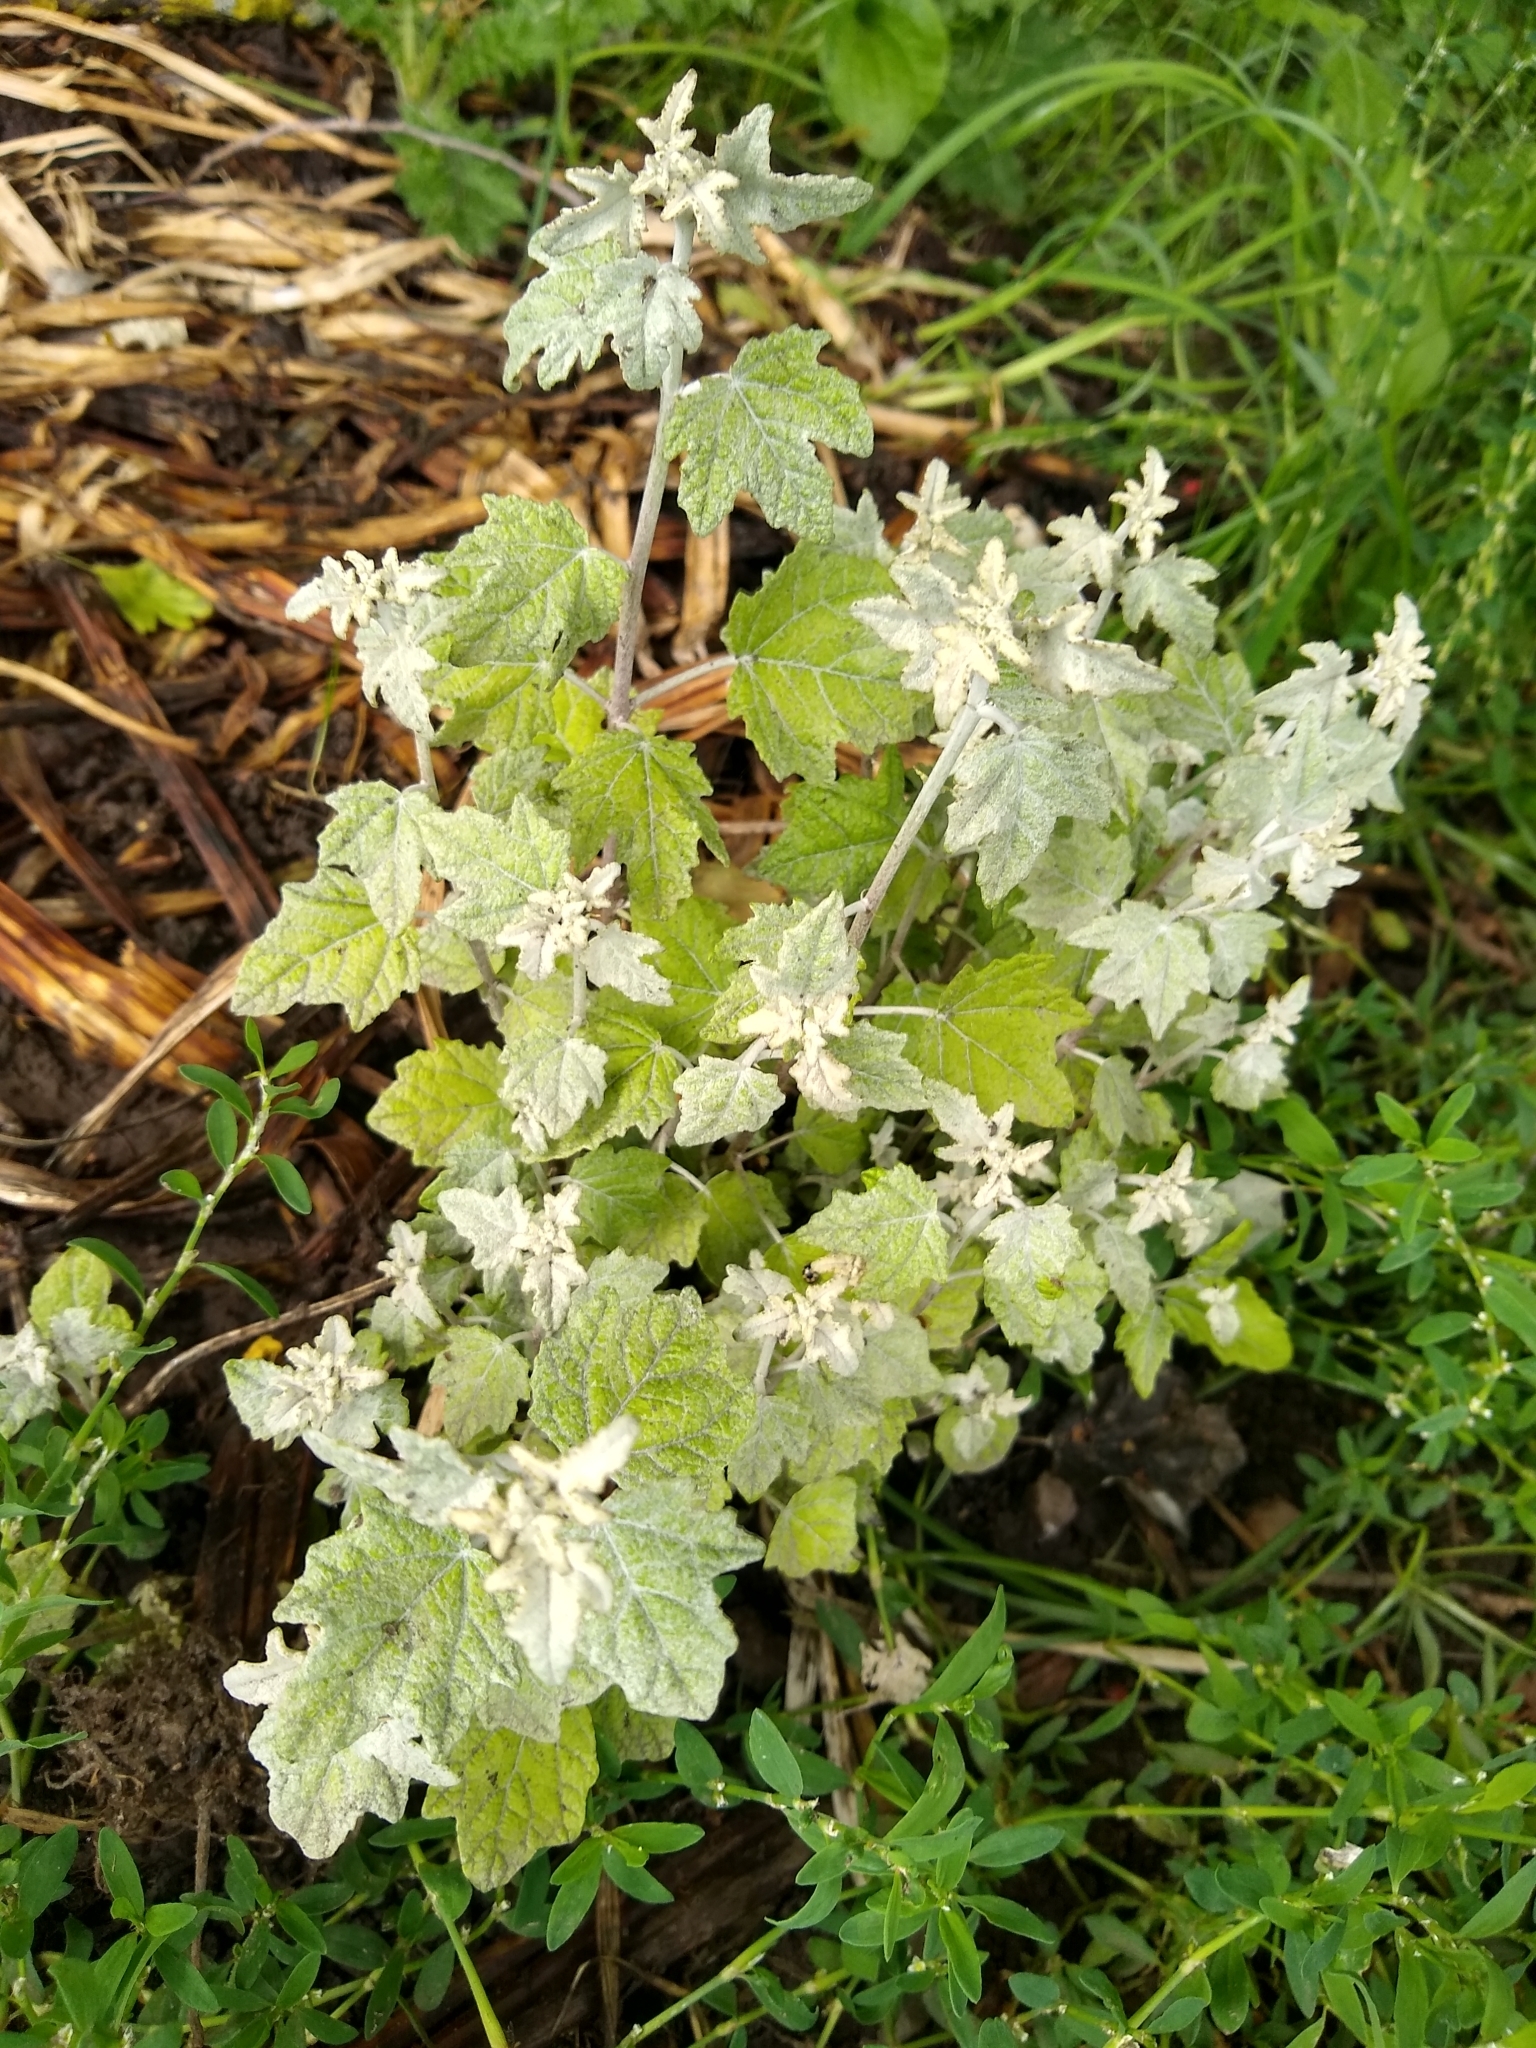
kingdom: Plantae
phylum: Tracheophyta
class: Magnoliopsida
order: Malpighiales
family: Salicaceae
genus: Populus
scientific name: Populus alba
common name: White poplar
